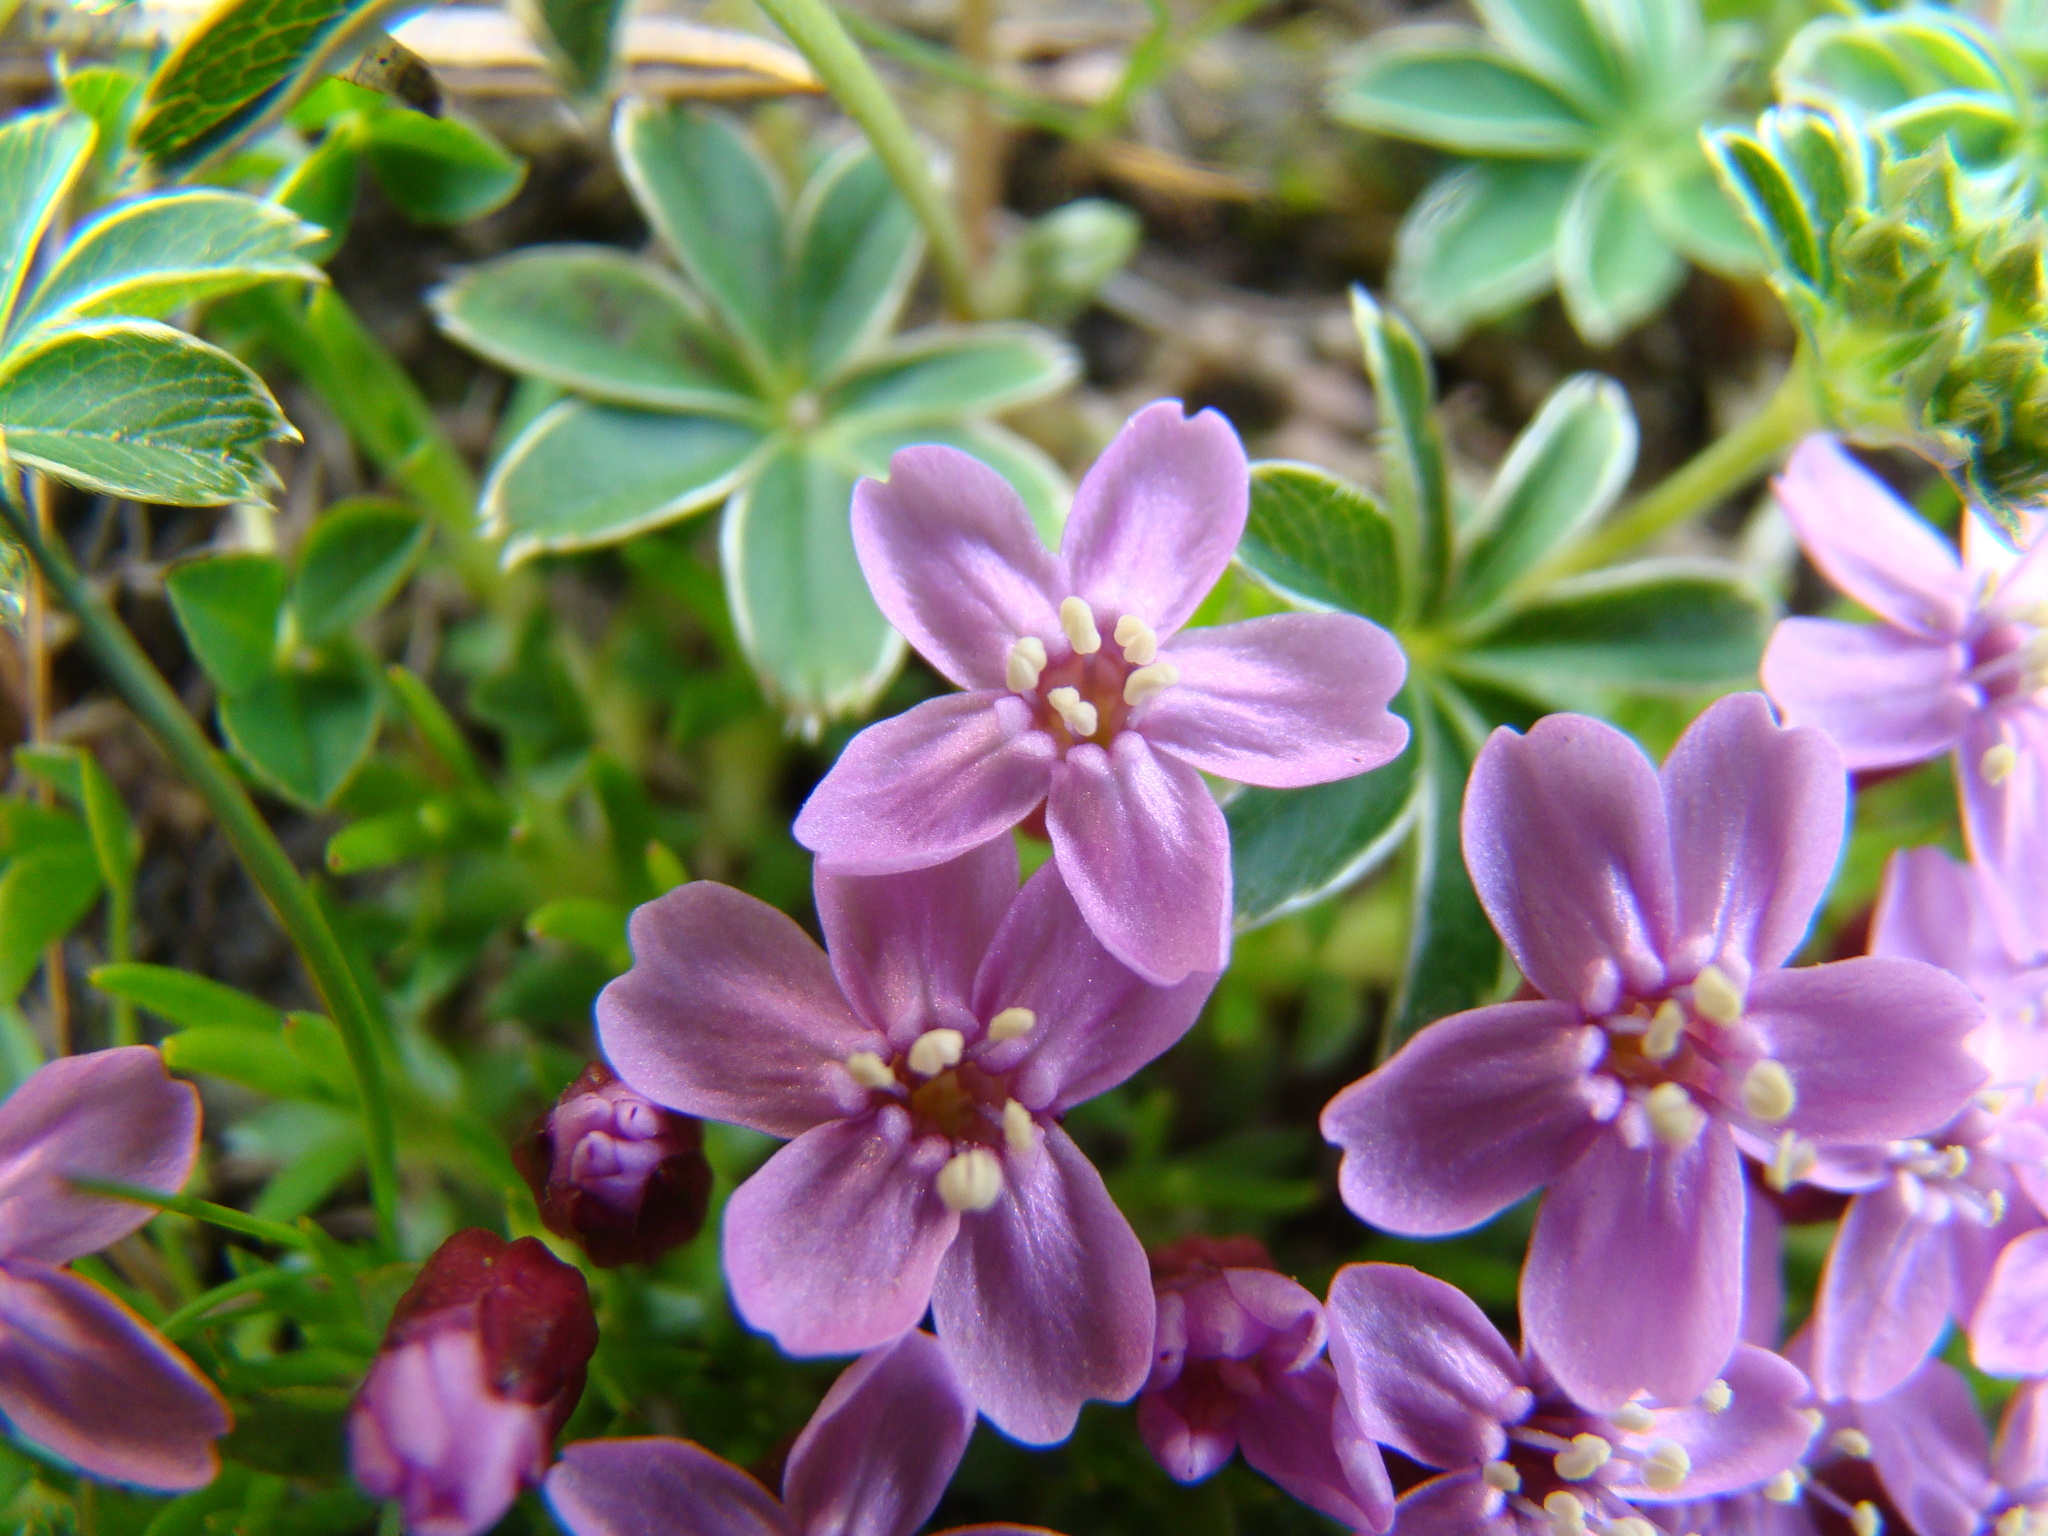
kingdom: Plantae
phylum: Tracheophyta
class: Magnoliopsida
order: Caryophyllales
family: Caryophyllaceae
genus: Silene
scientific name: Silene acaulis
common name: Moss campion
